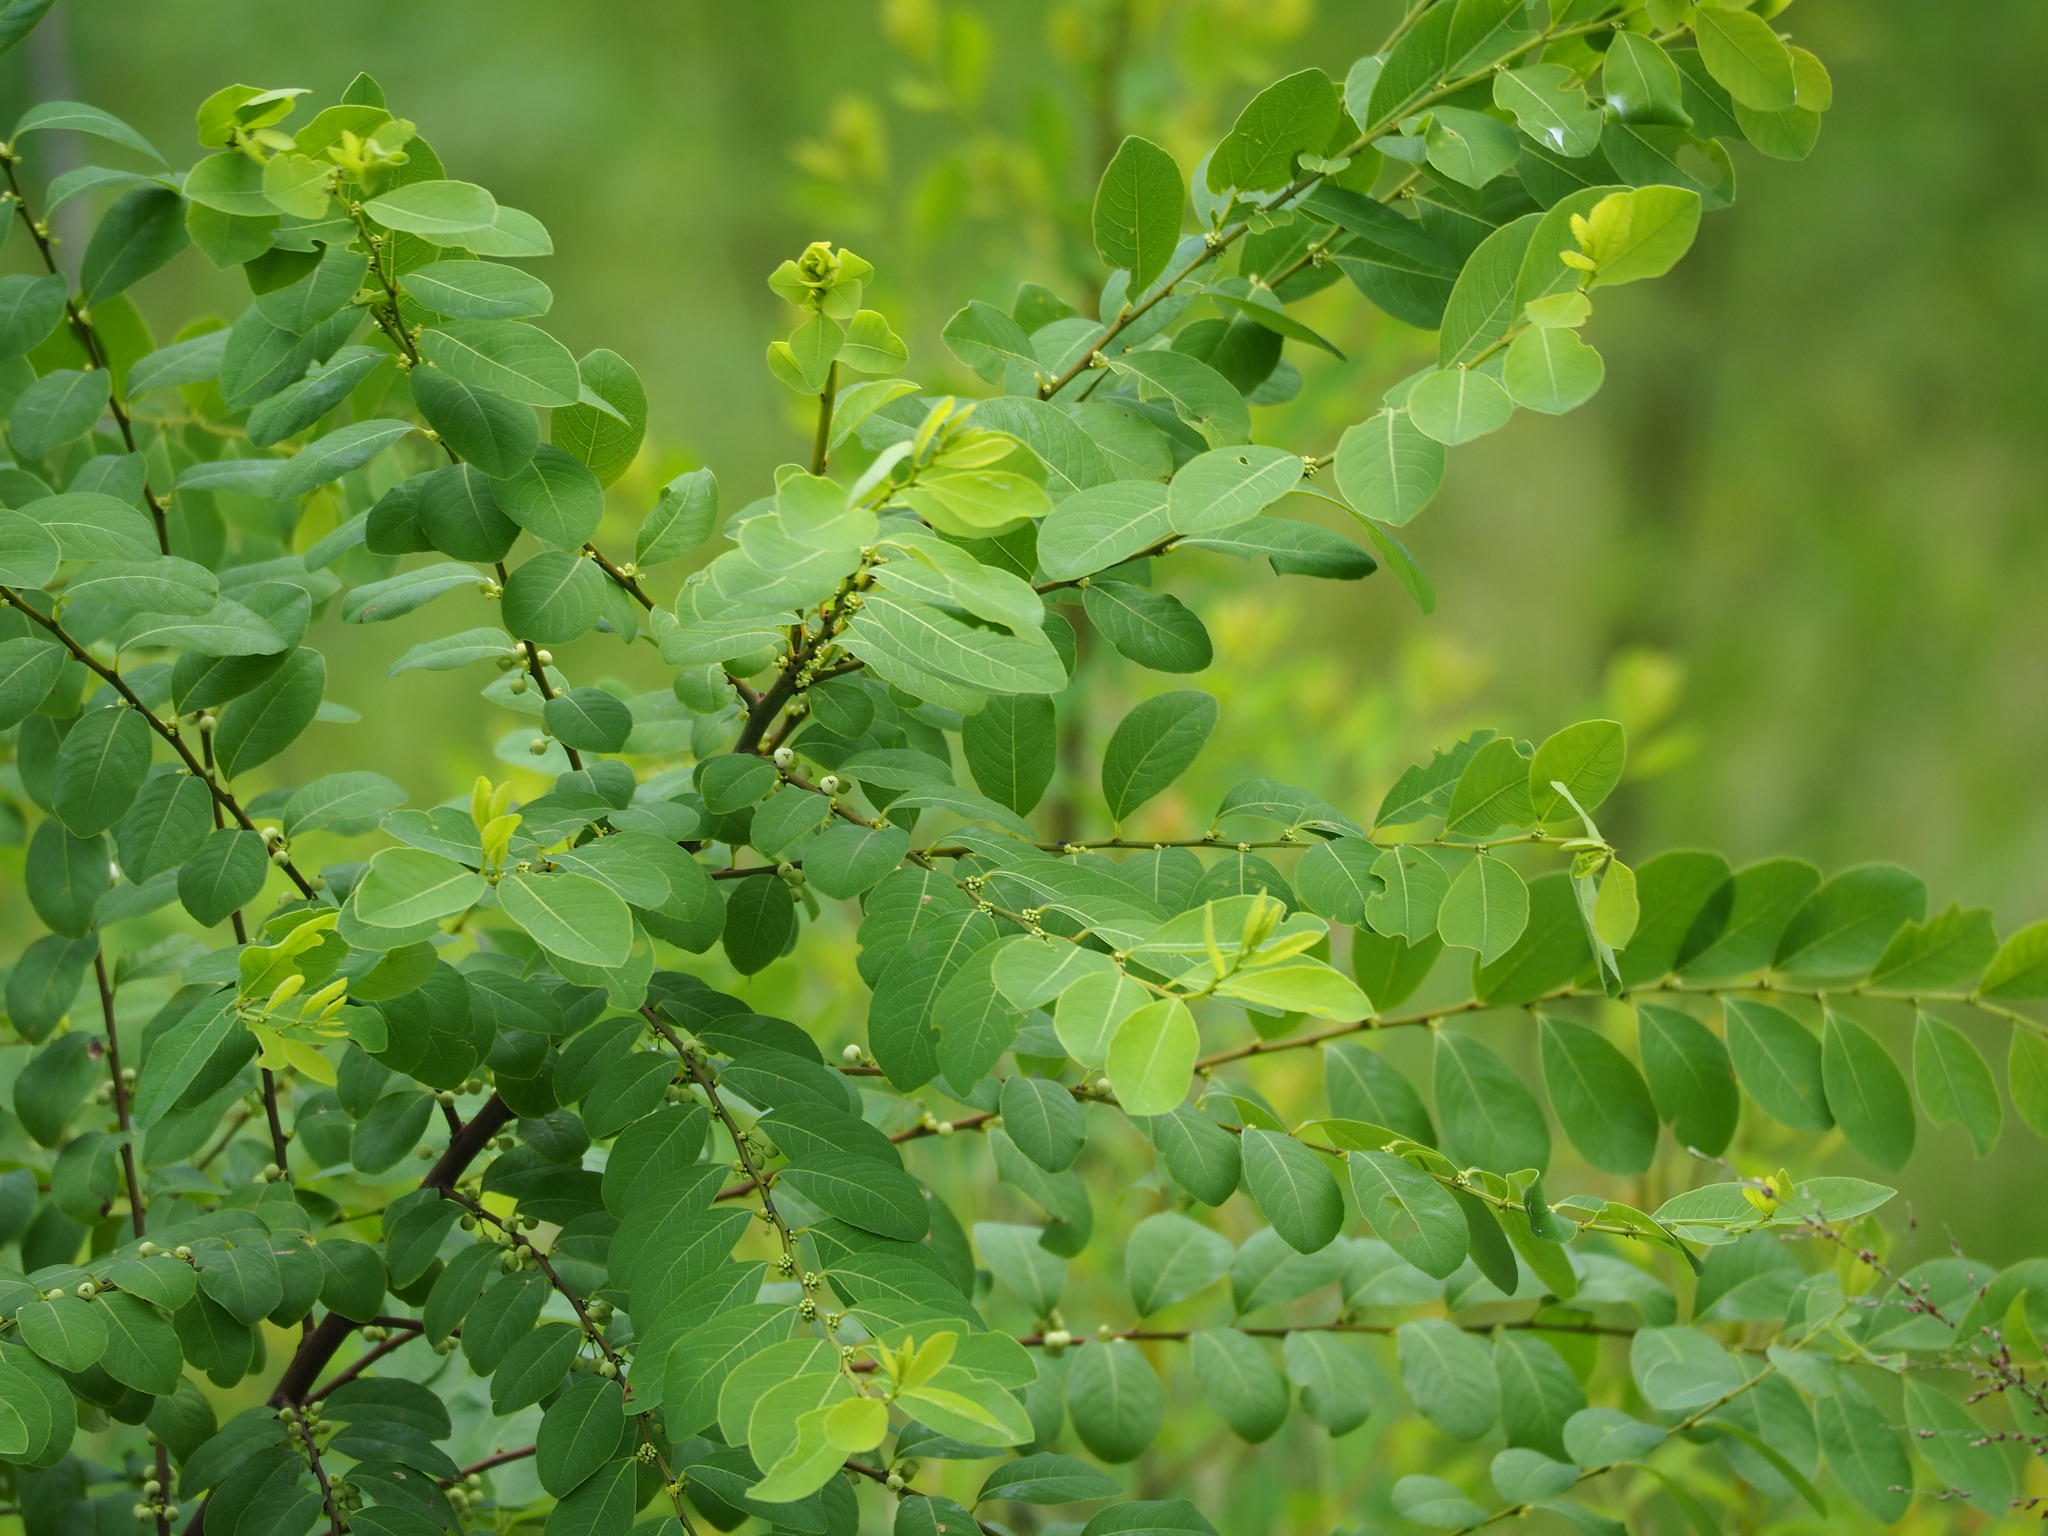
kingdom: Plantae
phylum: Tracheophyta
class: Magnoliopsida
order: Malpighiales
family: Phyllanthaceae
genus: Flueggea
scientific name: Flueggea virosa
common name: Common bushweed
